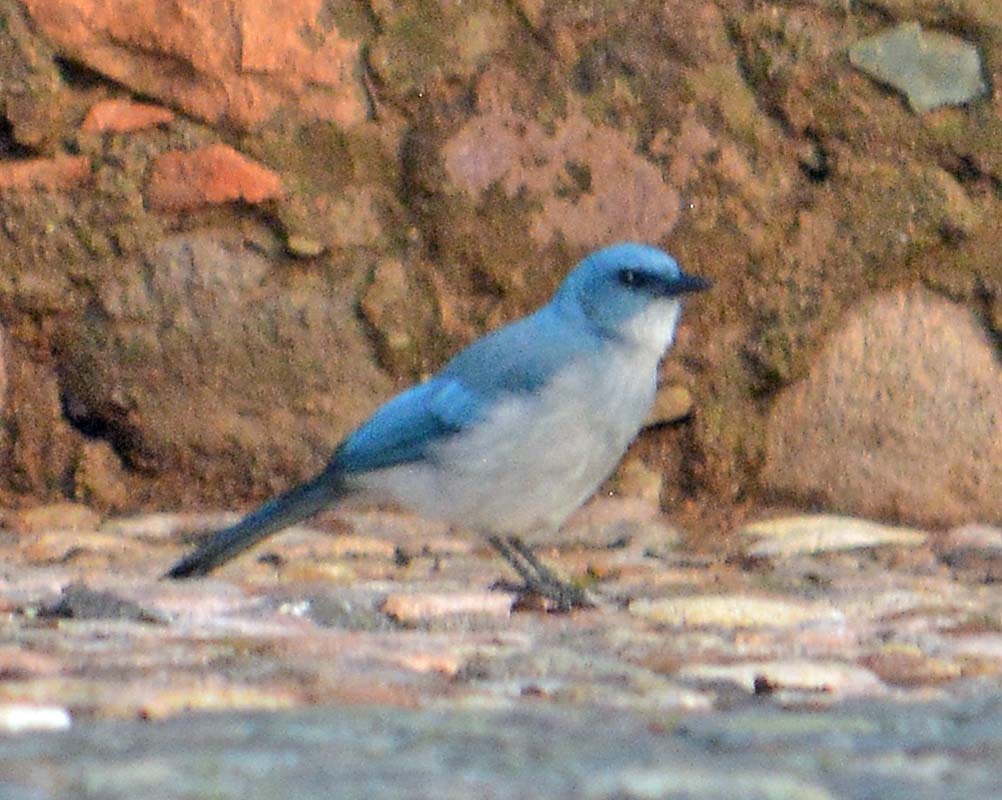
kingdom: Animalia
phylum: Chordata
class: Aves
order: Passeriformes
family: Corvidae
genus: Aphelocoma
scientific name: Aphelocoma wollweberi
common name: Mexican jay
